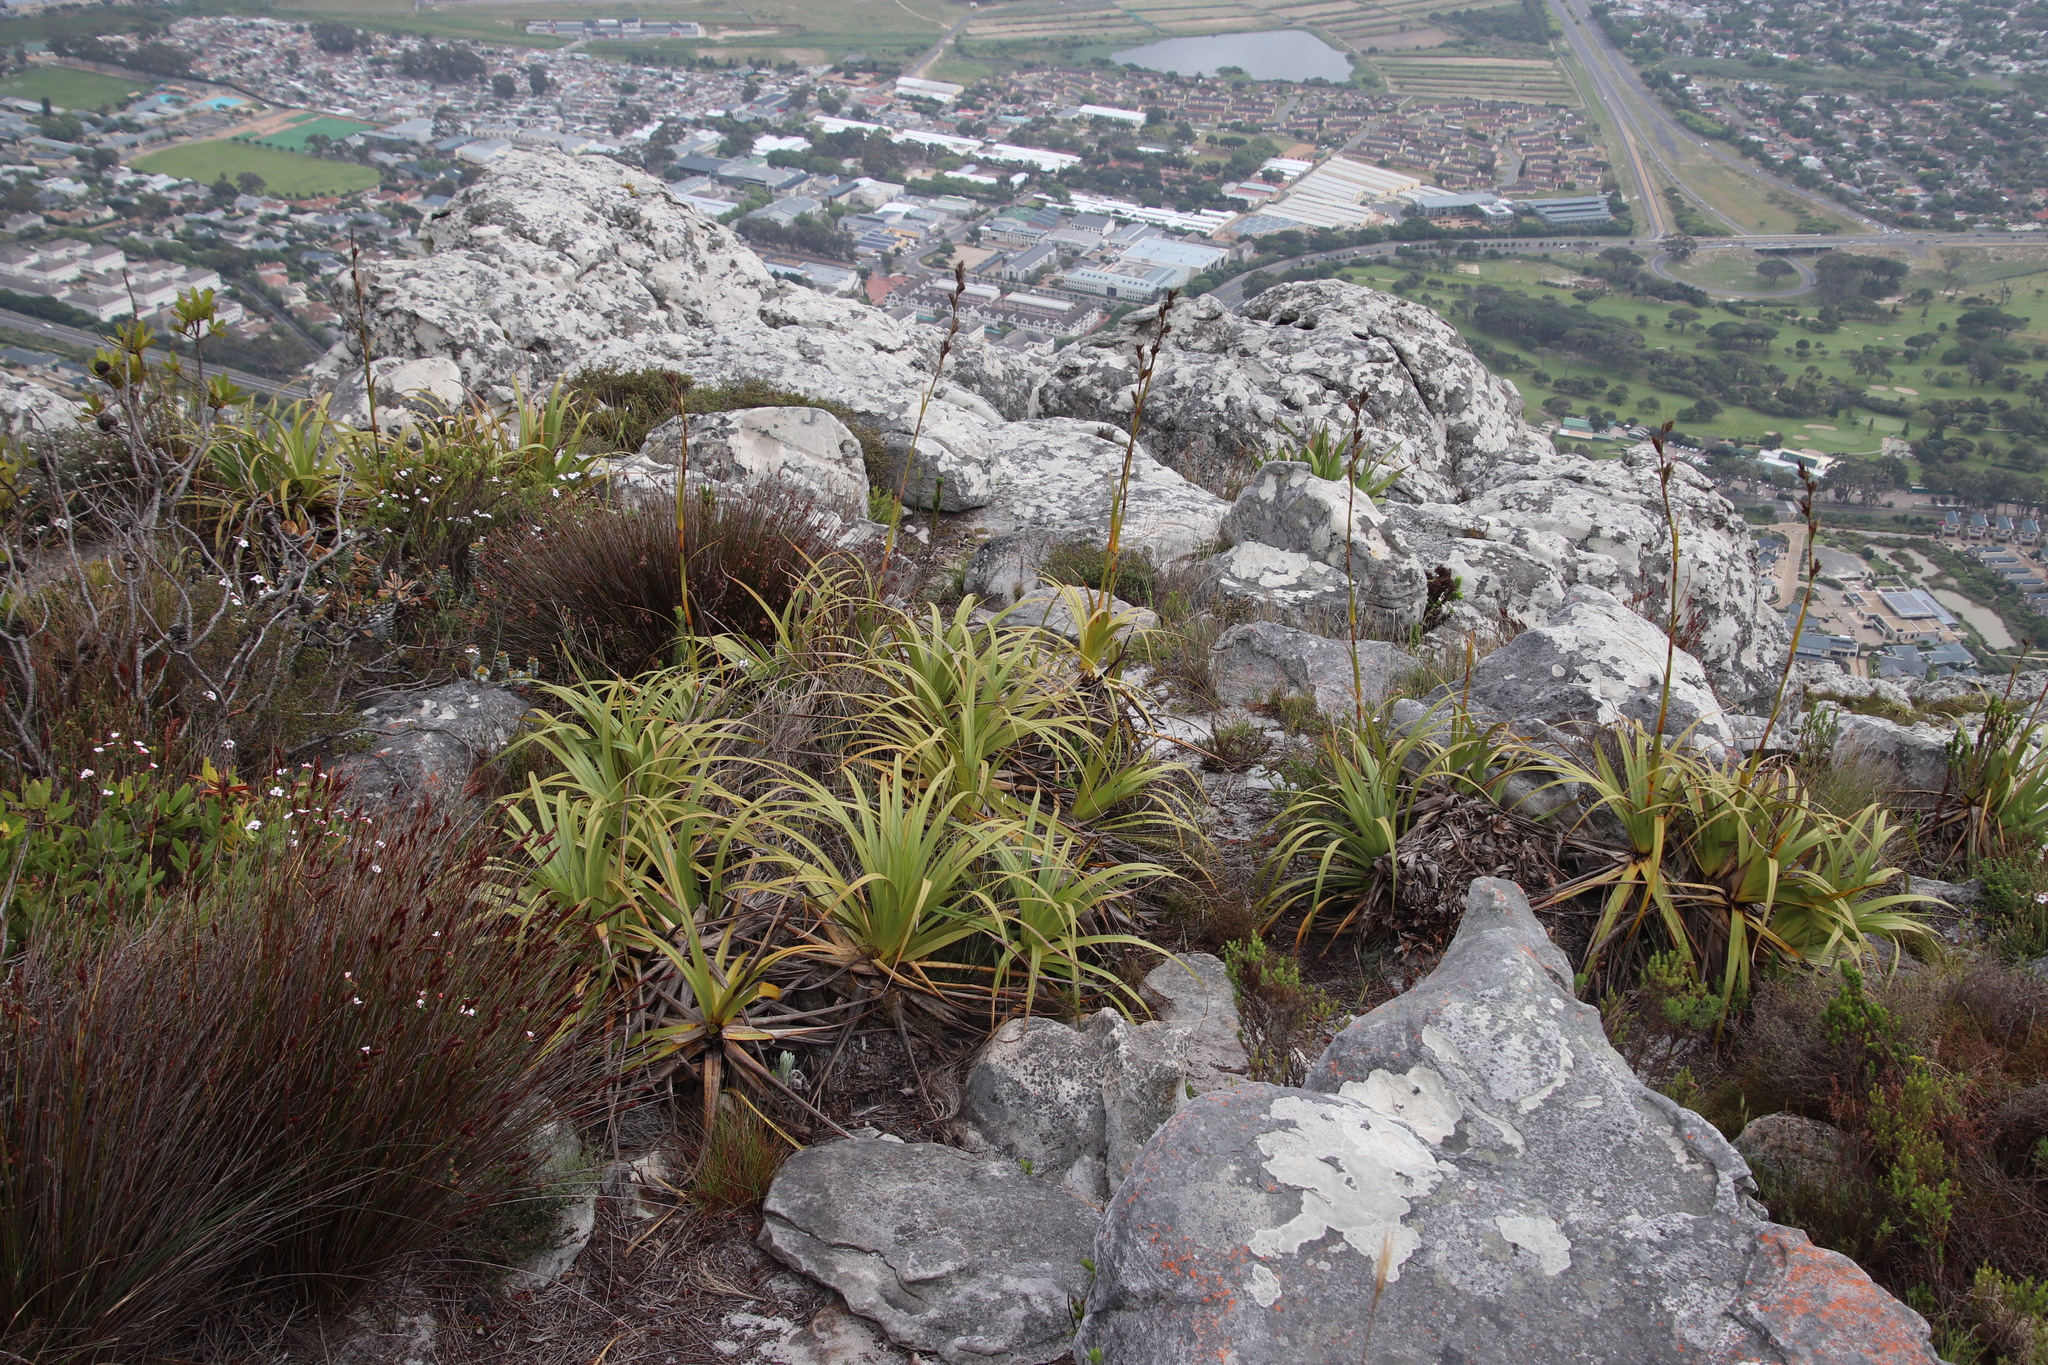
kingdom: Plantae
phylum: Tracheophyta
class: Liliopsida
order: Poales
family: Cyperaceae
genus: Tetraria
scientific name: Tetraria thermalis
